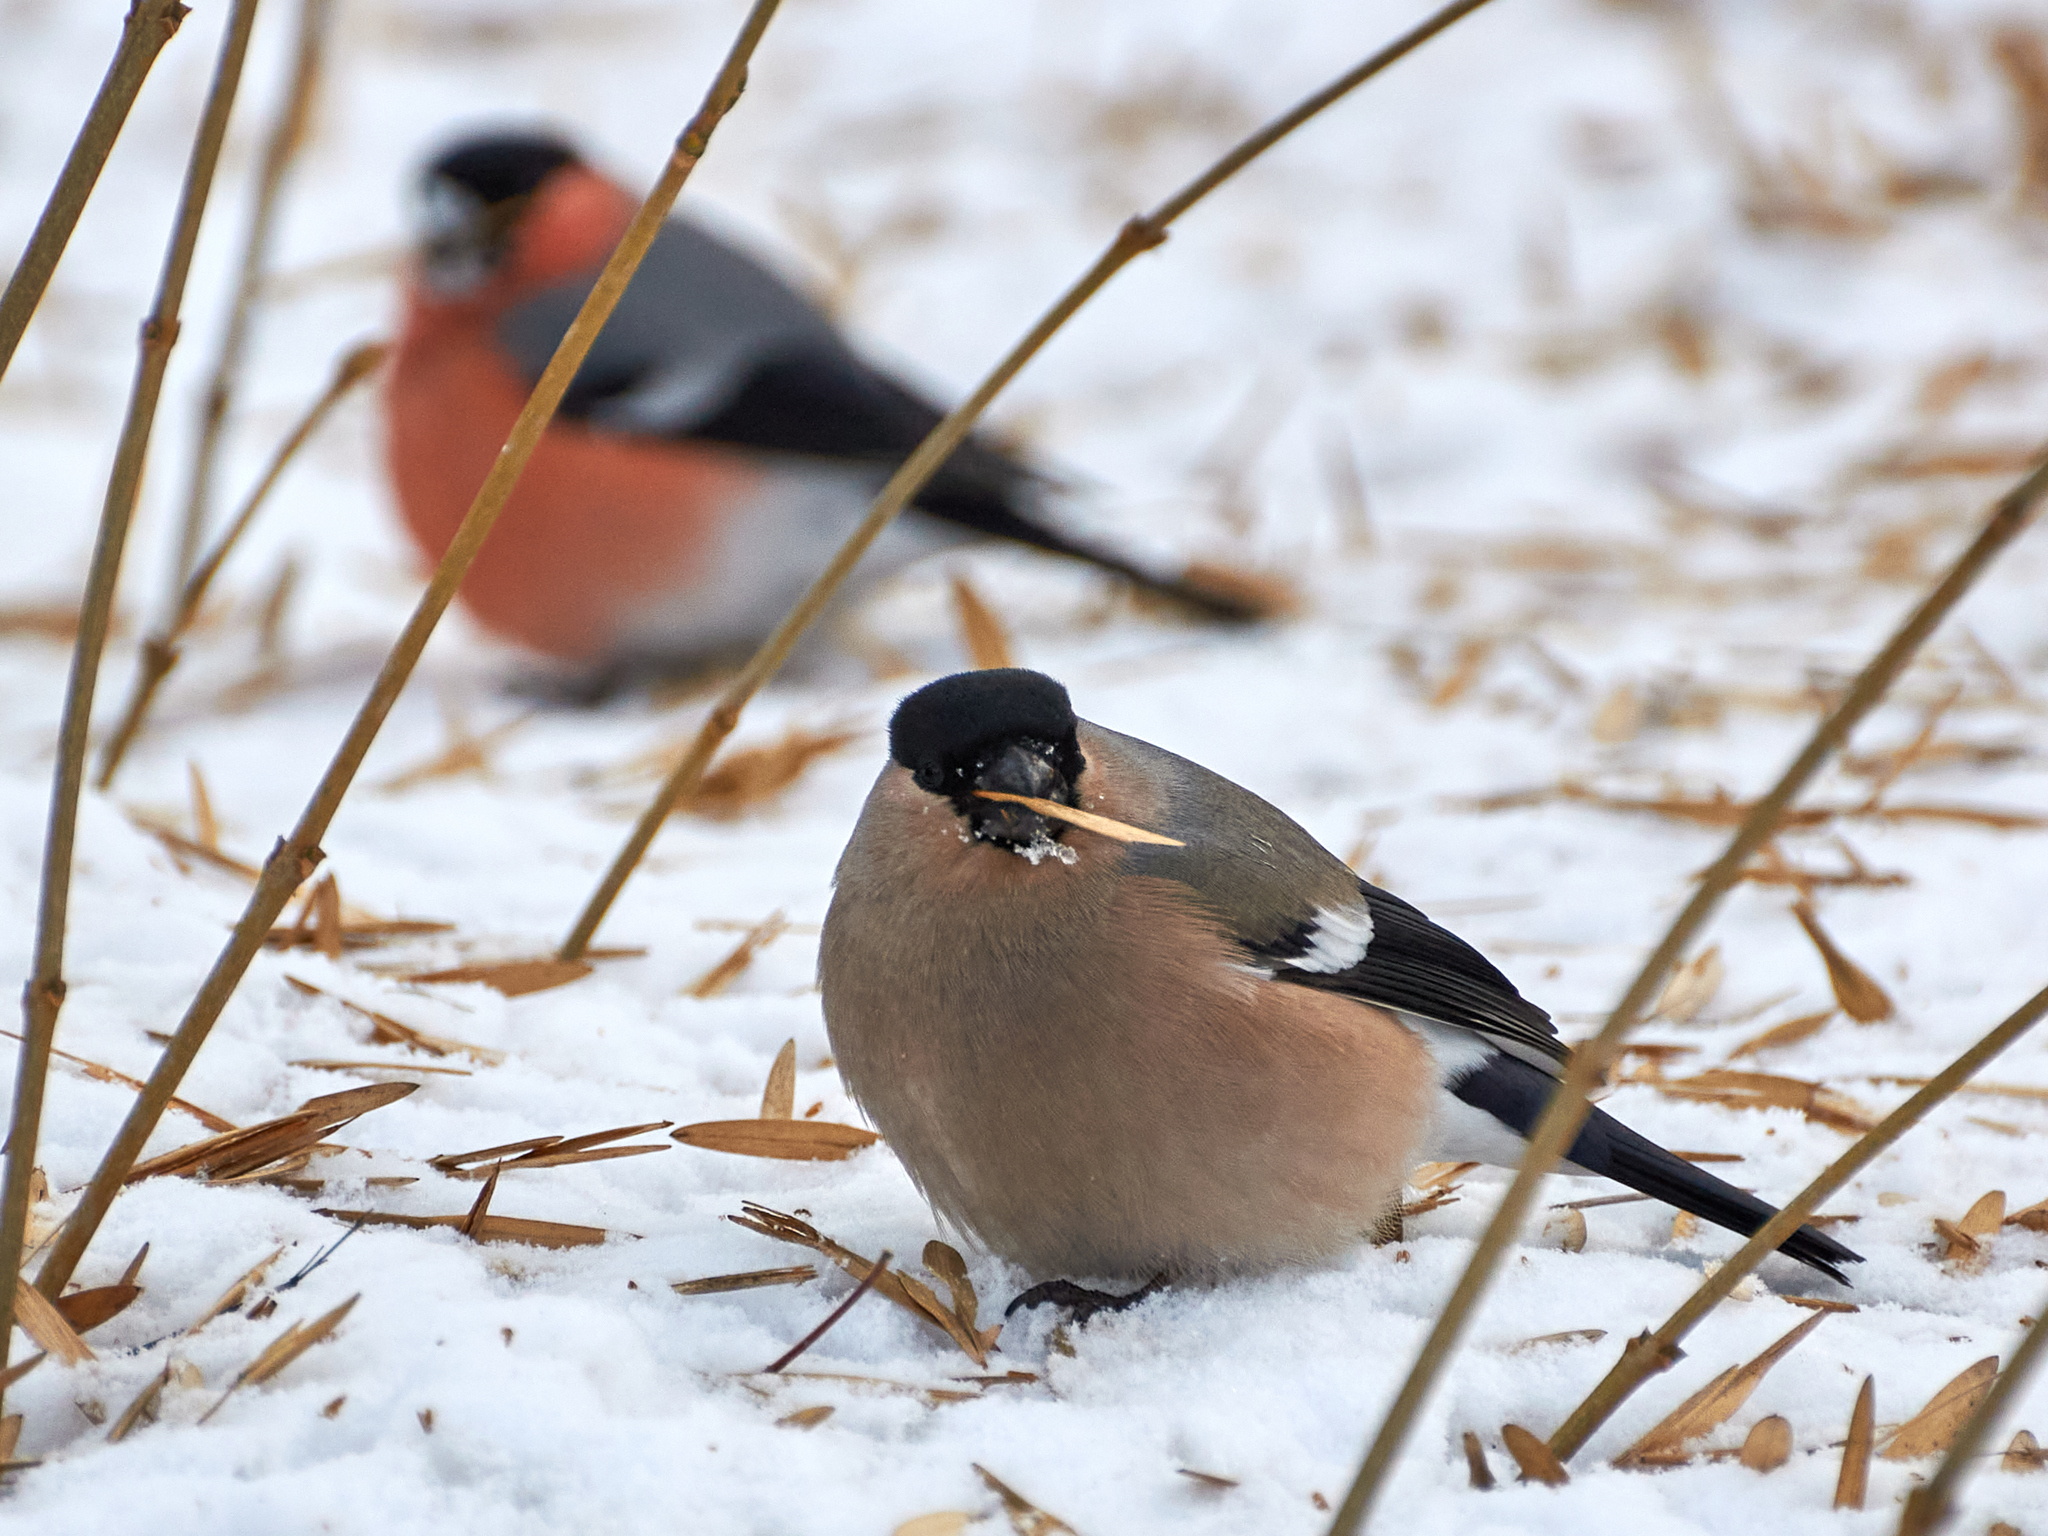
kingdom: Animalia
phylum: Chordata
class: Aves
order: Passeriformes
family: Fringillidae
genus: Pyrrhula
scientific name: Pyrrhula pyrrhula
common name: Eurasian bullfinch
